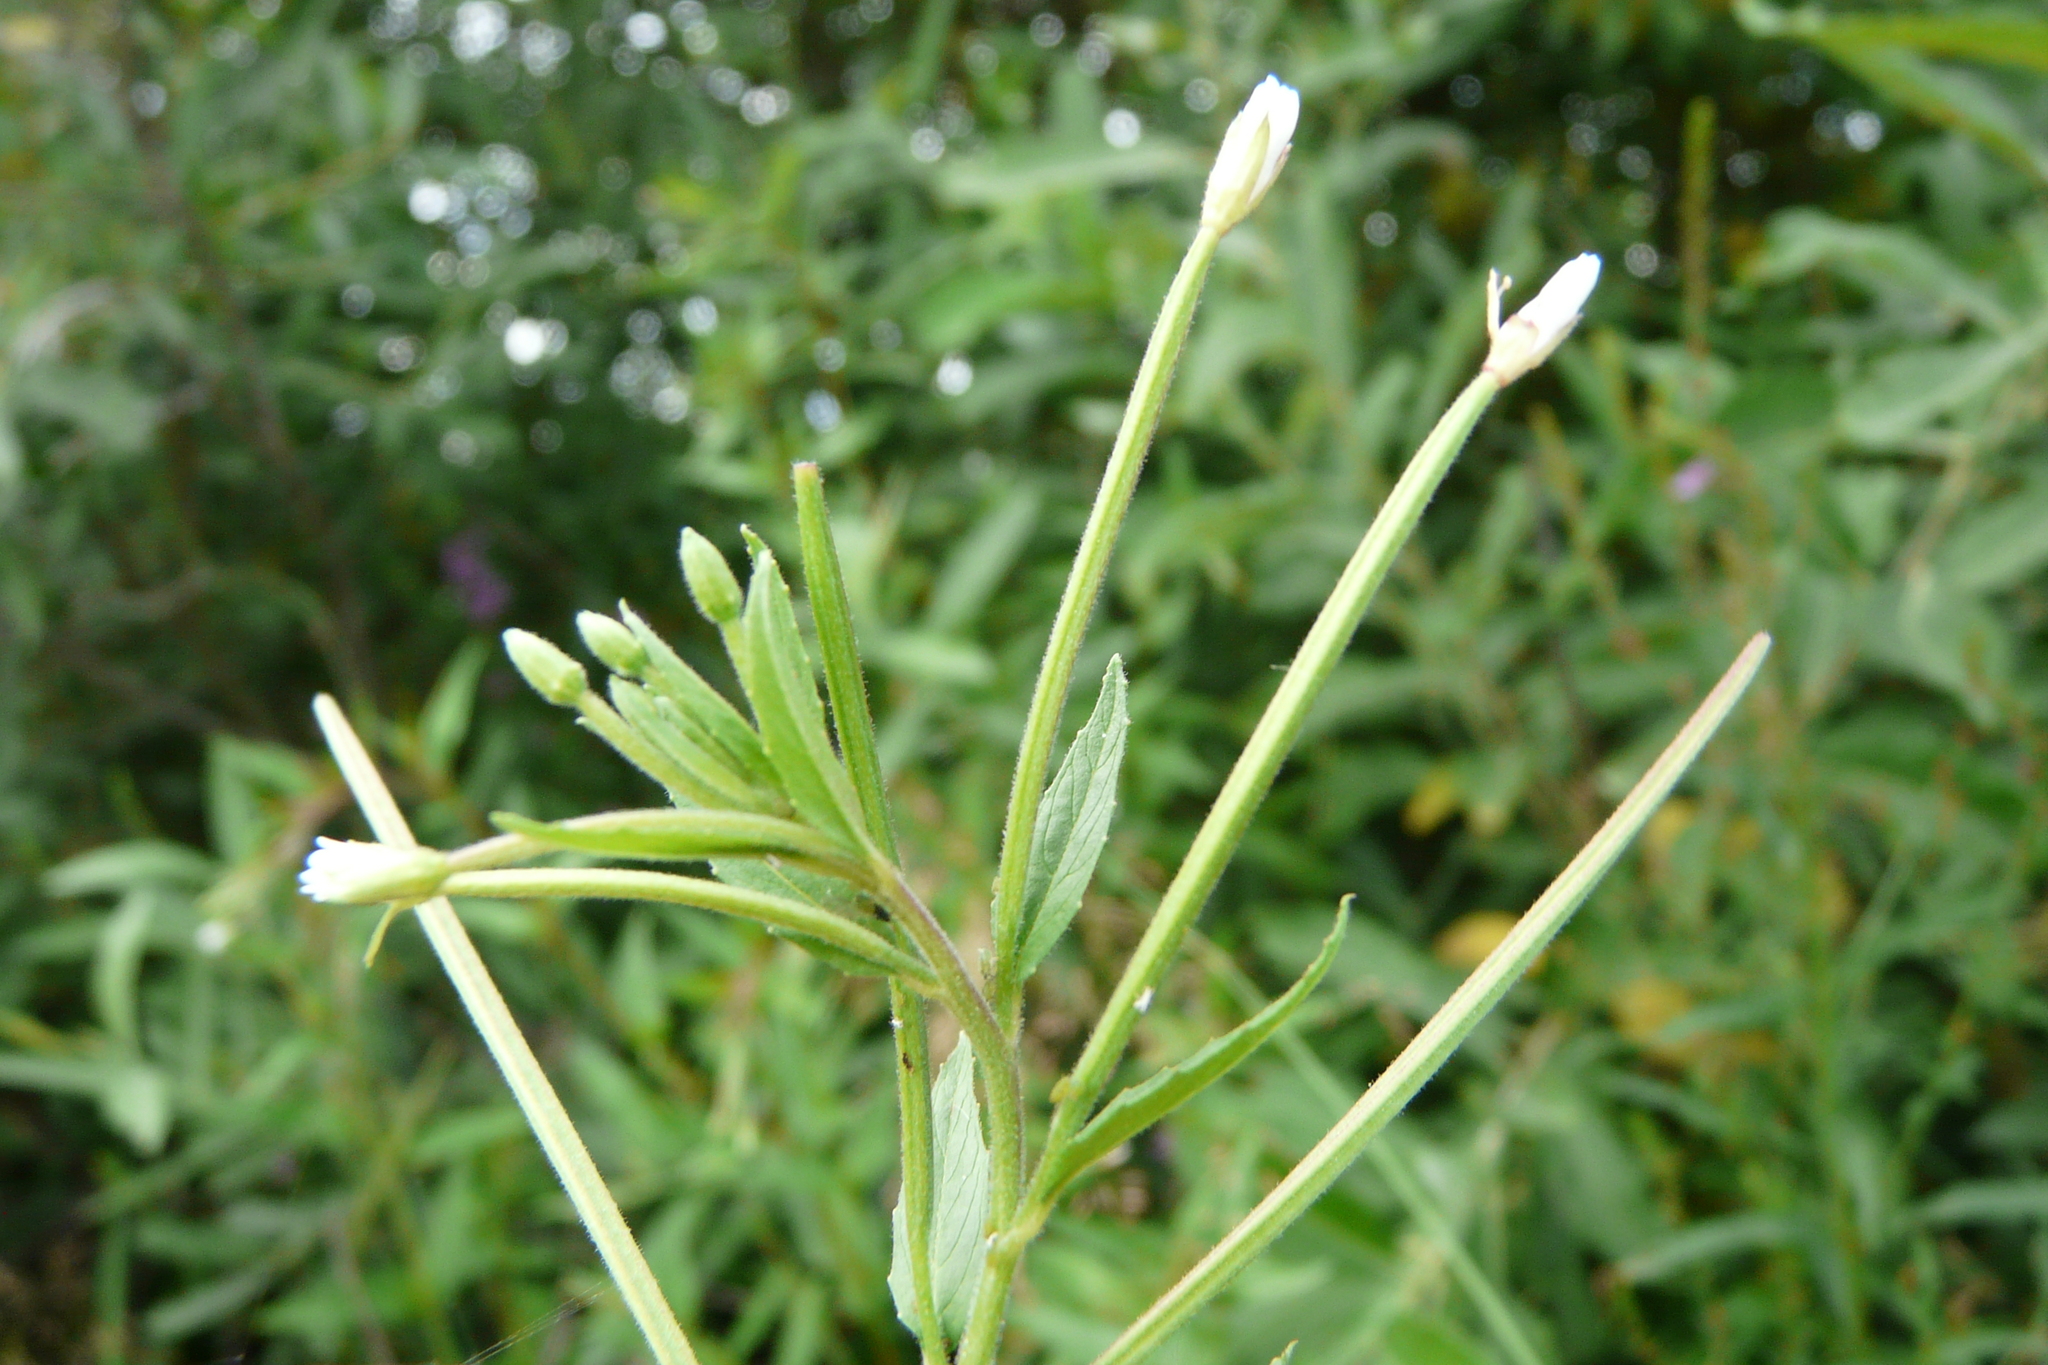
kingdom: Plantae
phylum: Tracheophyta
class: Magnoliopsida
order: Myrtales
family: Onagraceae
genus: Epilobium
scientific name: Epilobium pseudorubescens
